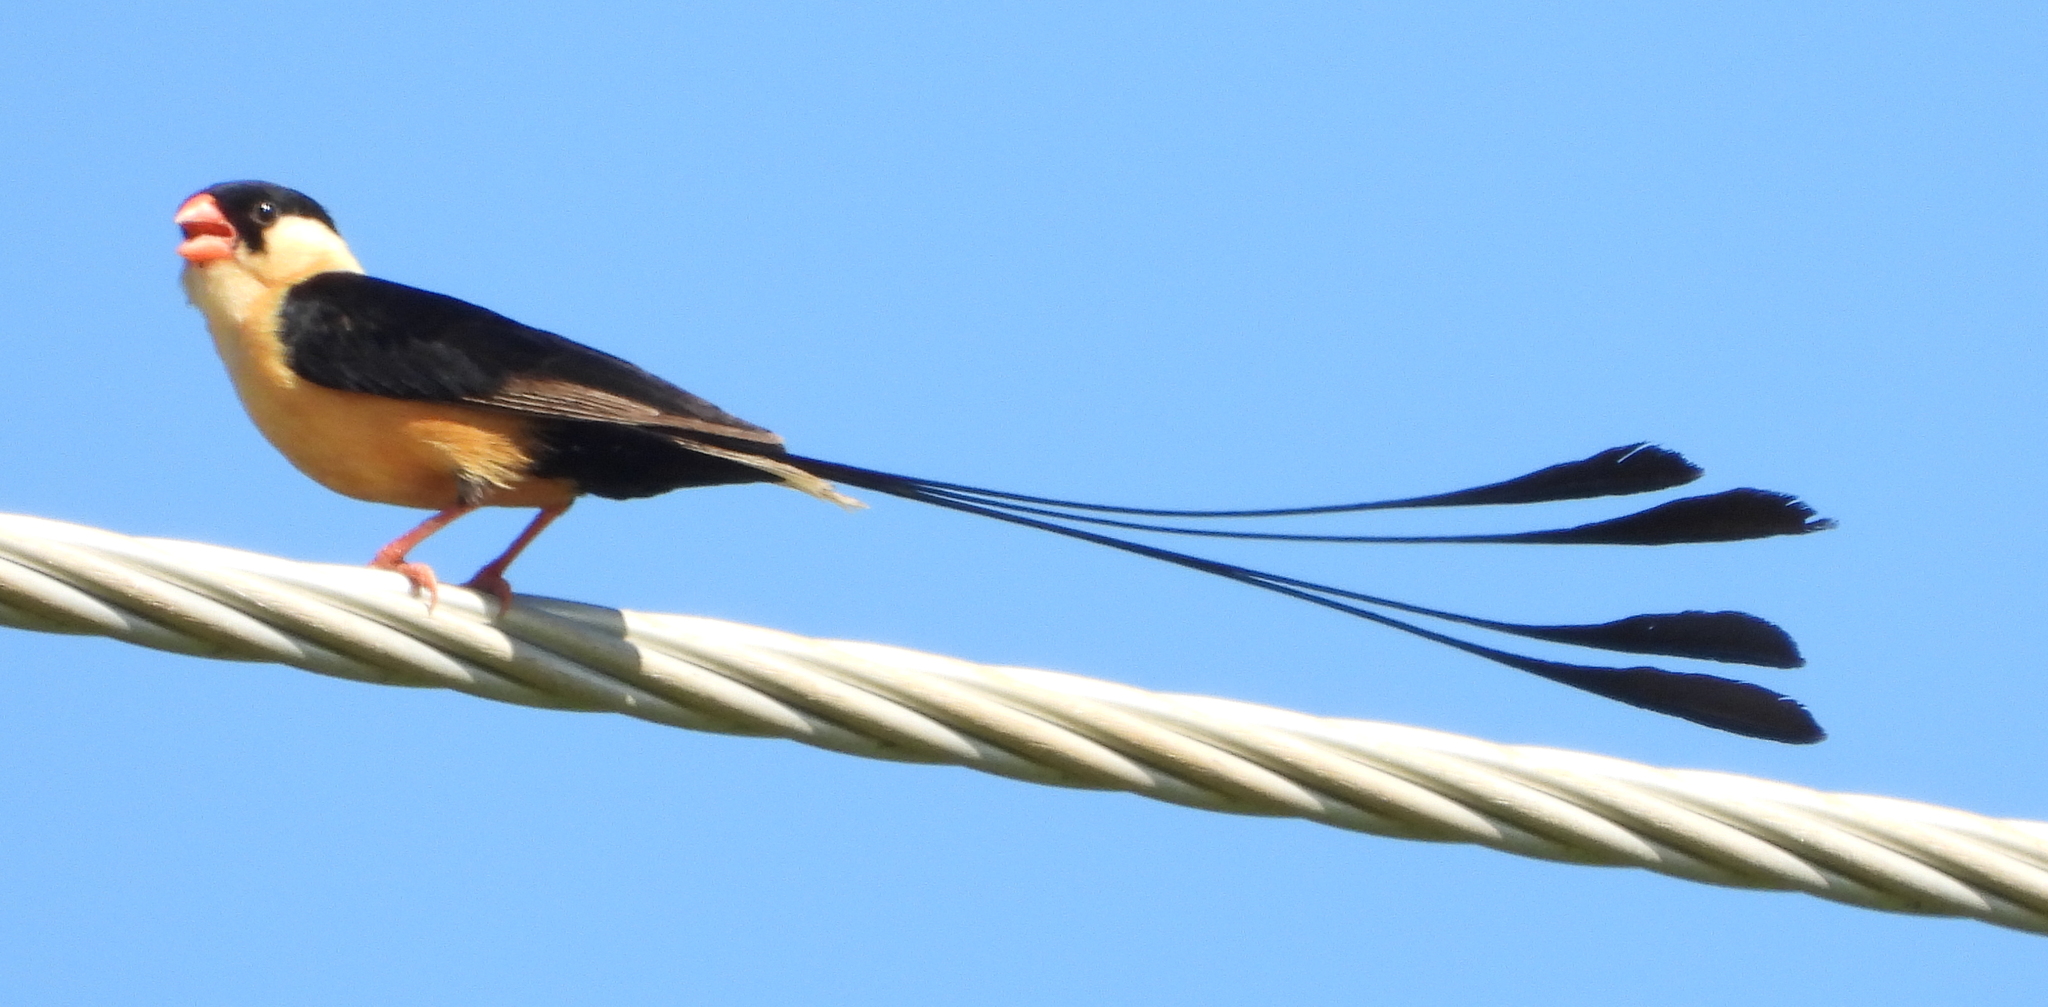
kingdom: Animalia
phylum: Chordata
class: Aves
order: Passeriformes
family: Viduidae
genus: Vidua
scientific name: Vidua regia
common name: Shaft-tailed whydah
